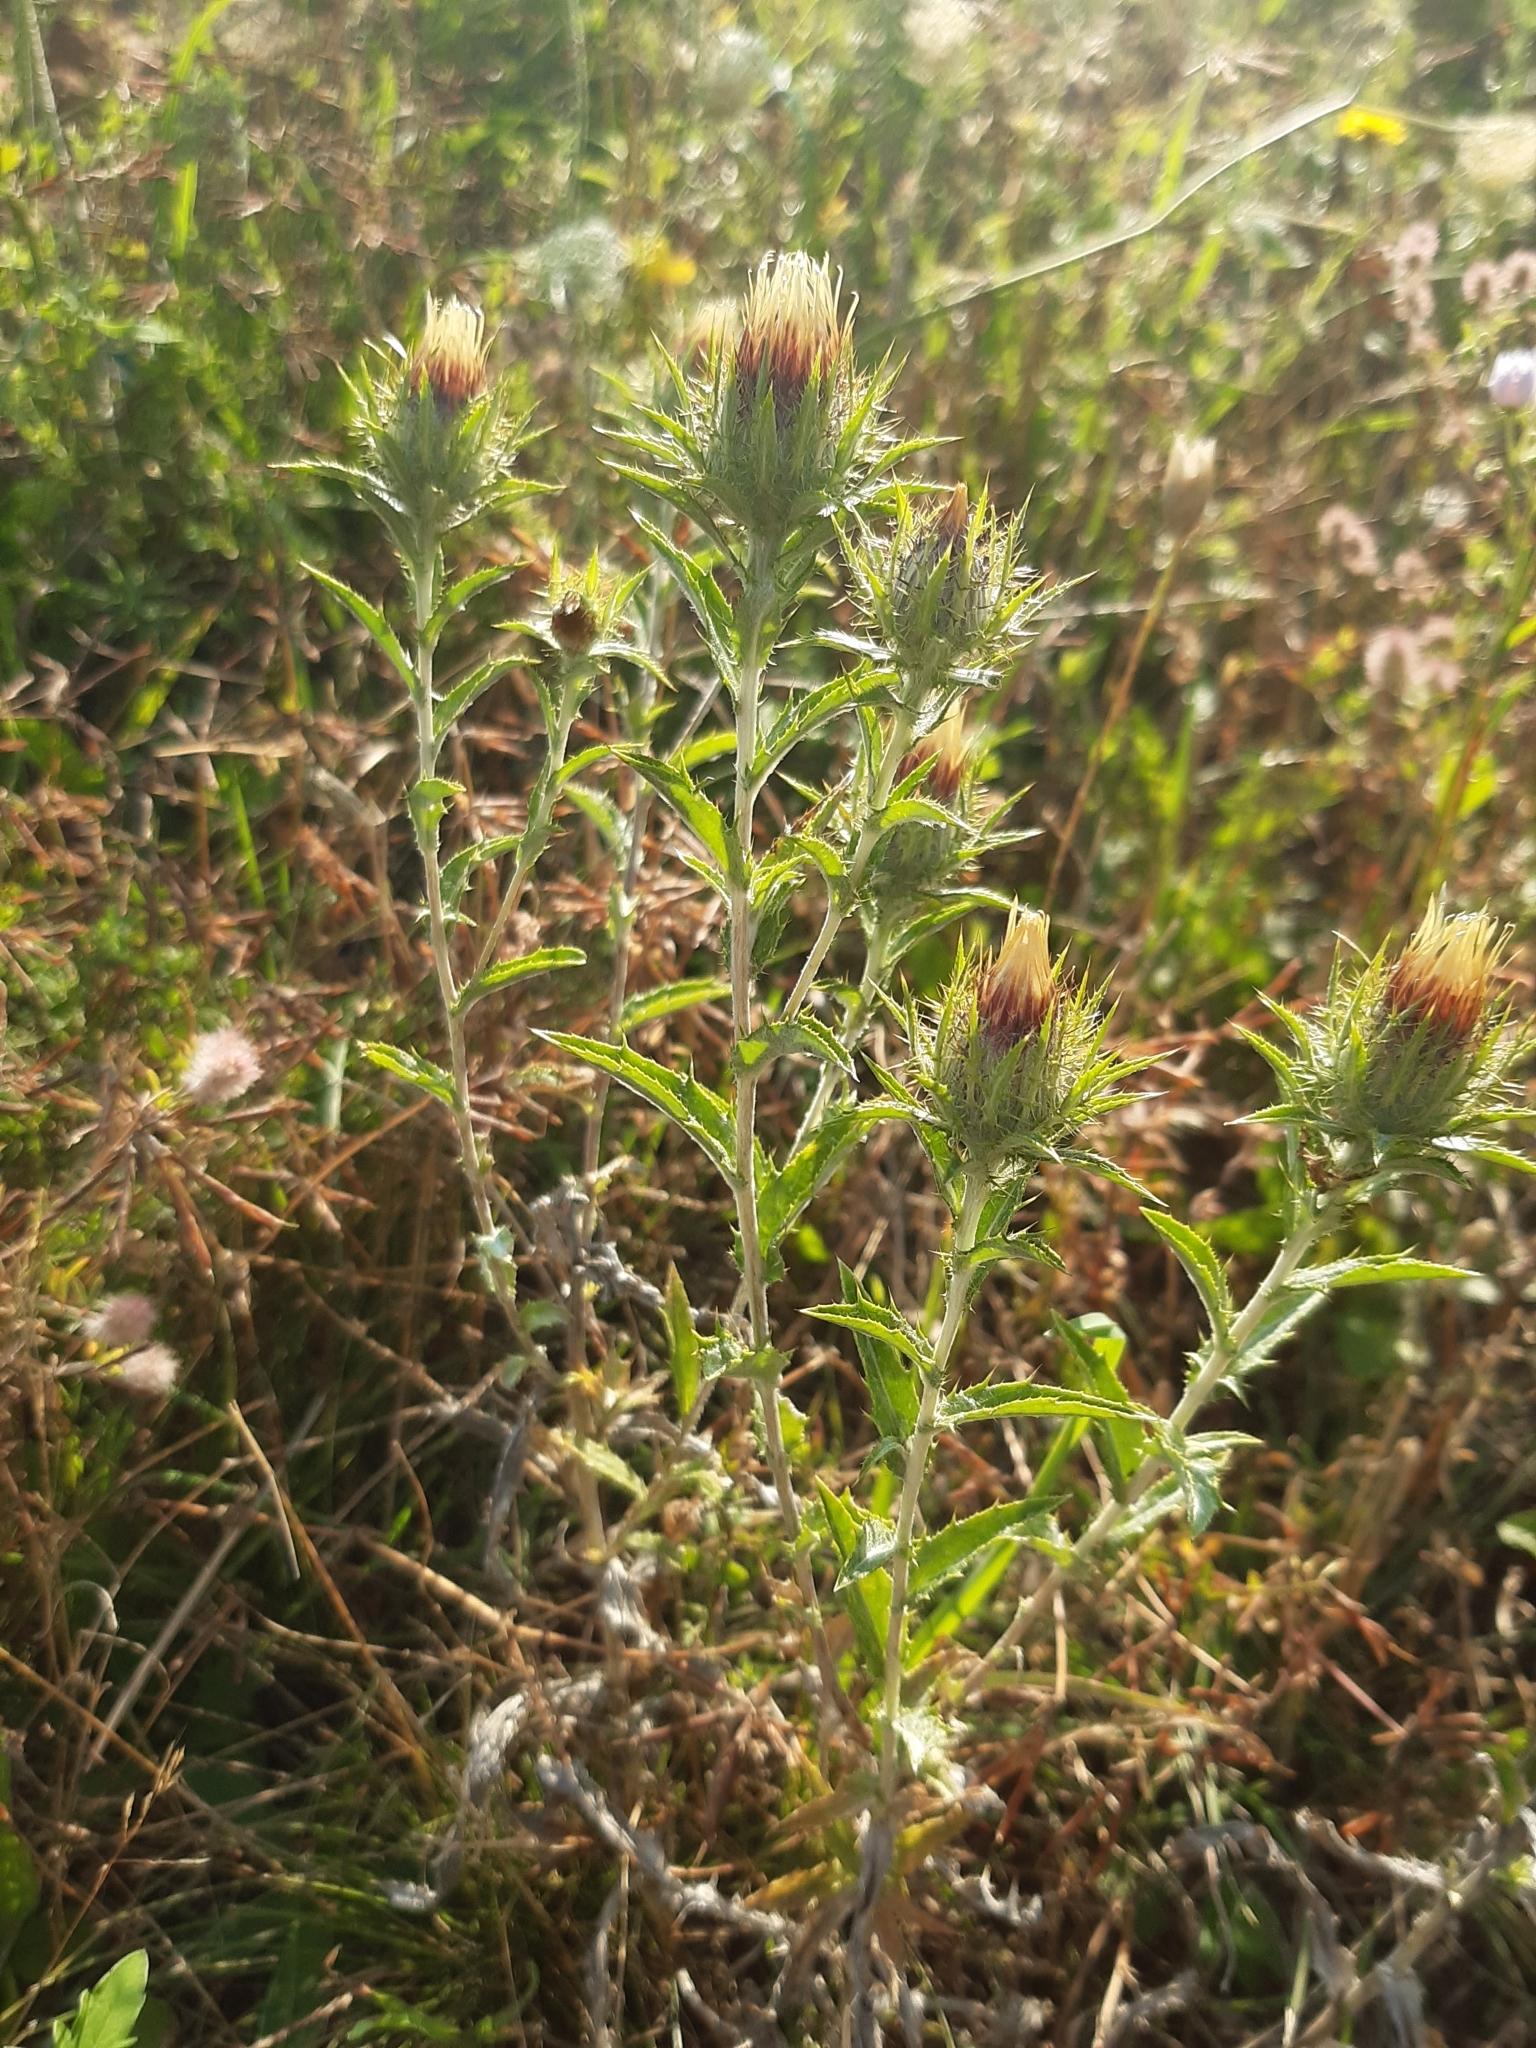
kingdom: Plantae
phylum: Tracheophyta
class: Magnoliopsida
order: Asterales
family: Asteraceae
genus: Carlina
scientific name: Carlina vulgaris
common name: Carline thistle
